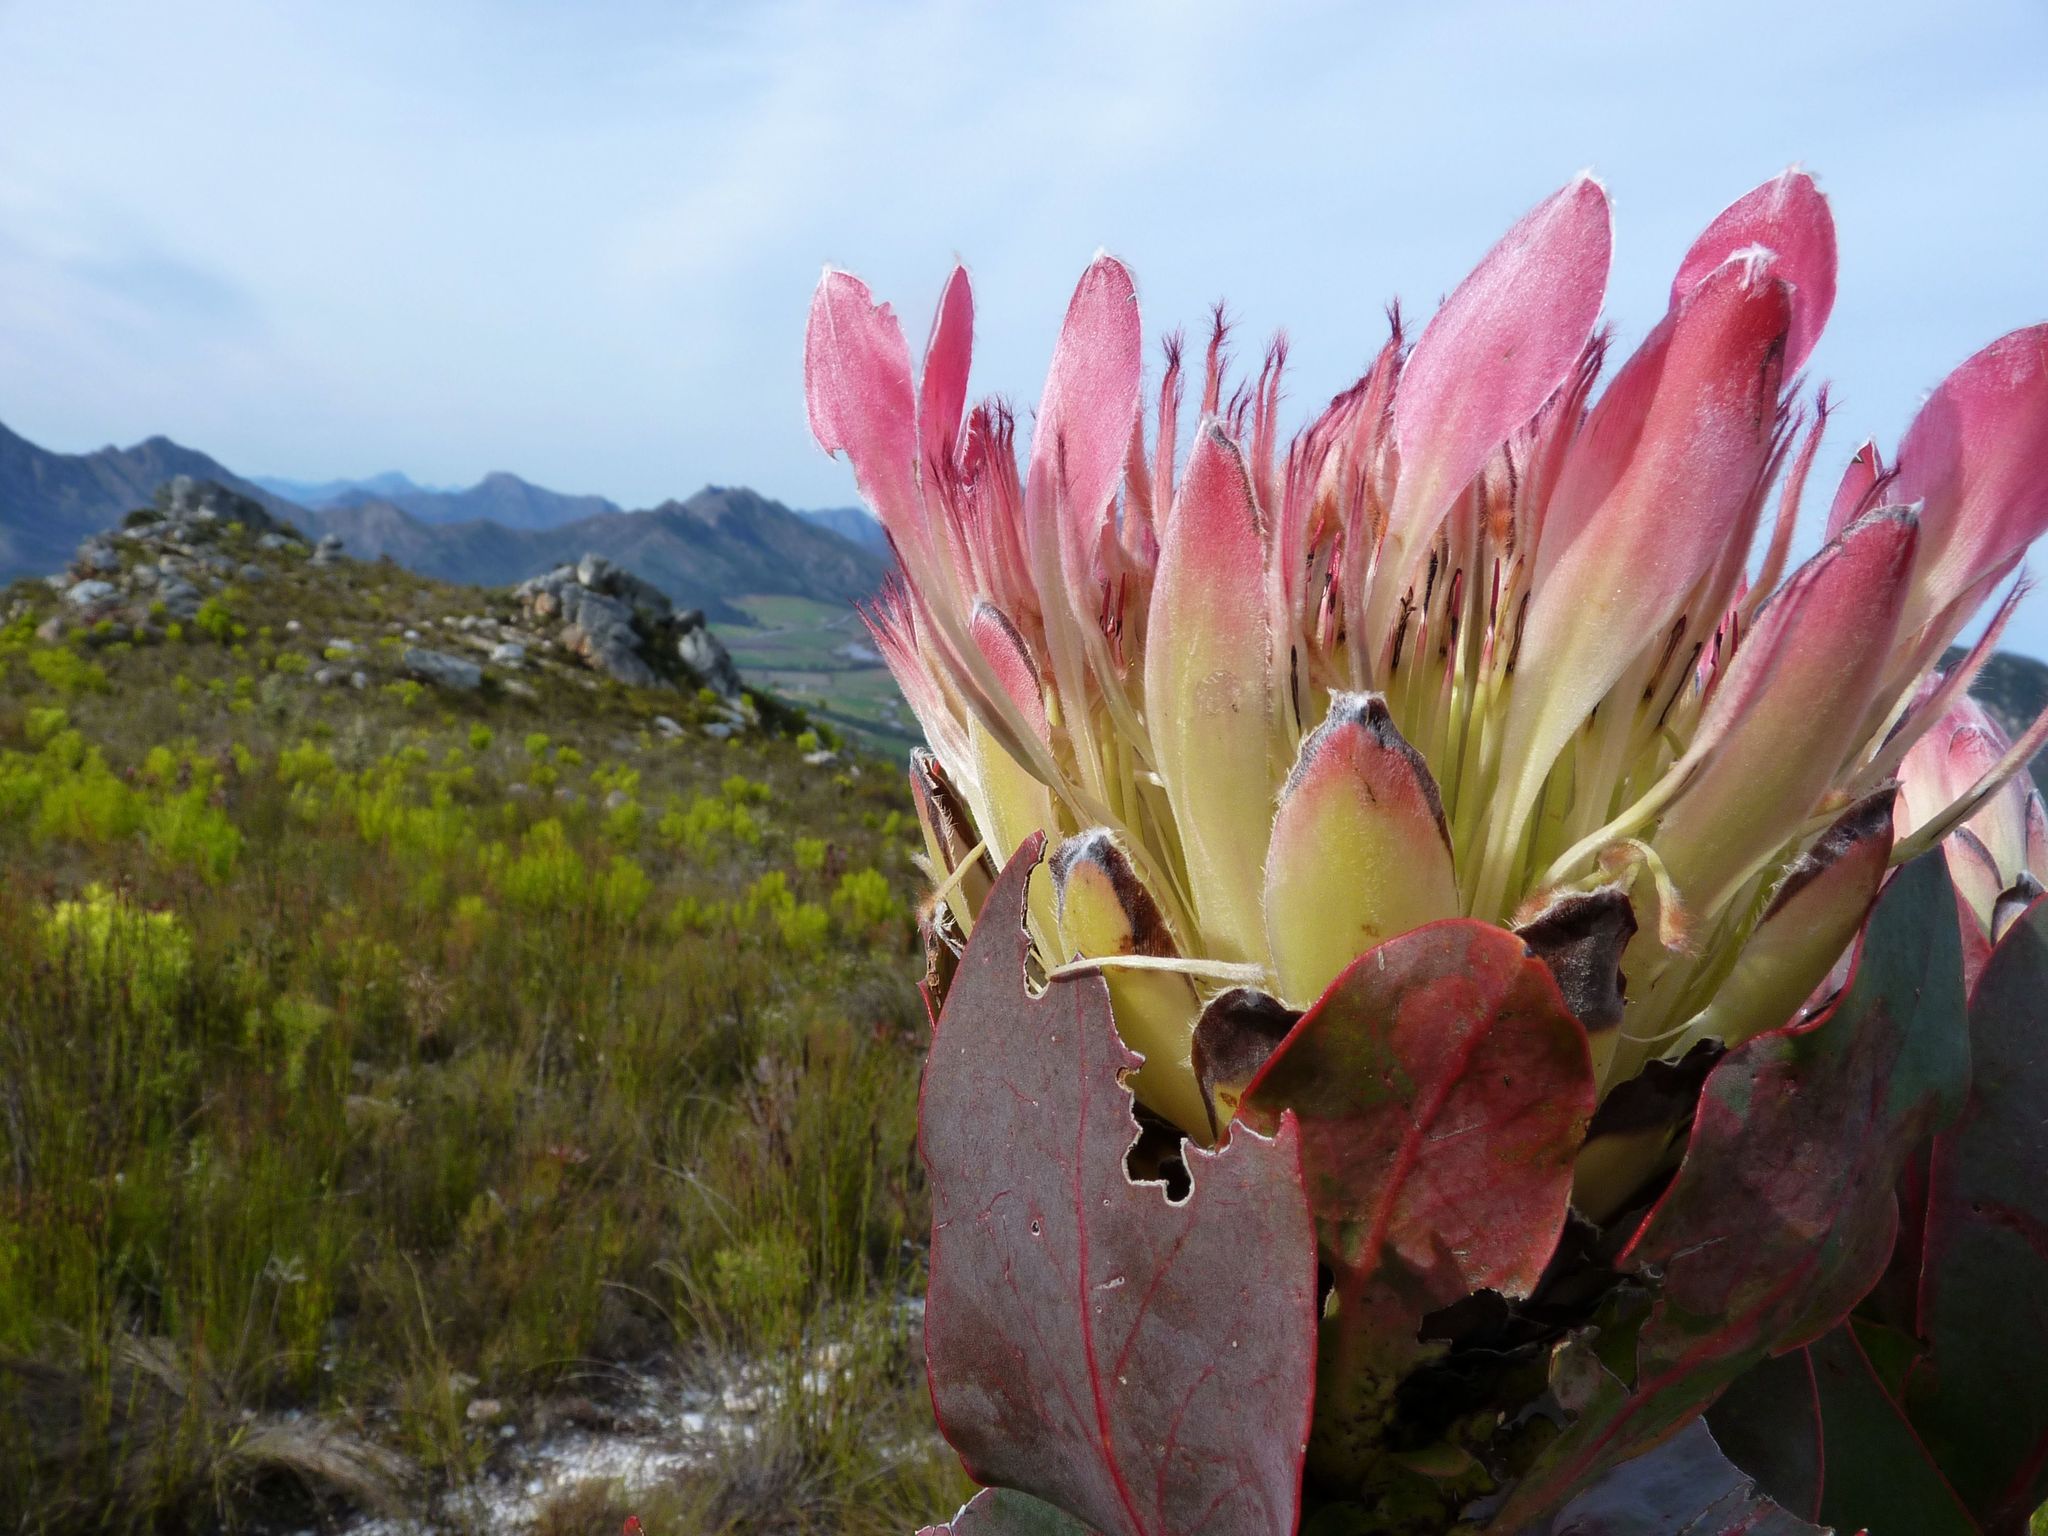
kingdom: Plantae
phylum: Tracheophyta
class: Magnoliopsida
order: Proteales
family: Proteaceae
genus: Protea
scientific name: Protea eximia
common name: Broad-leaved sugarbush
